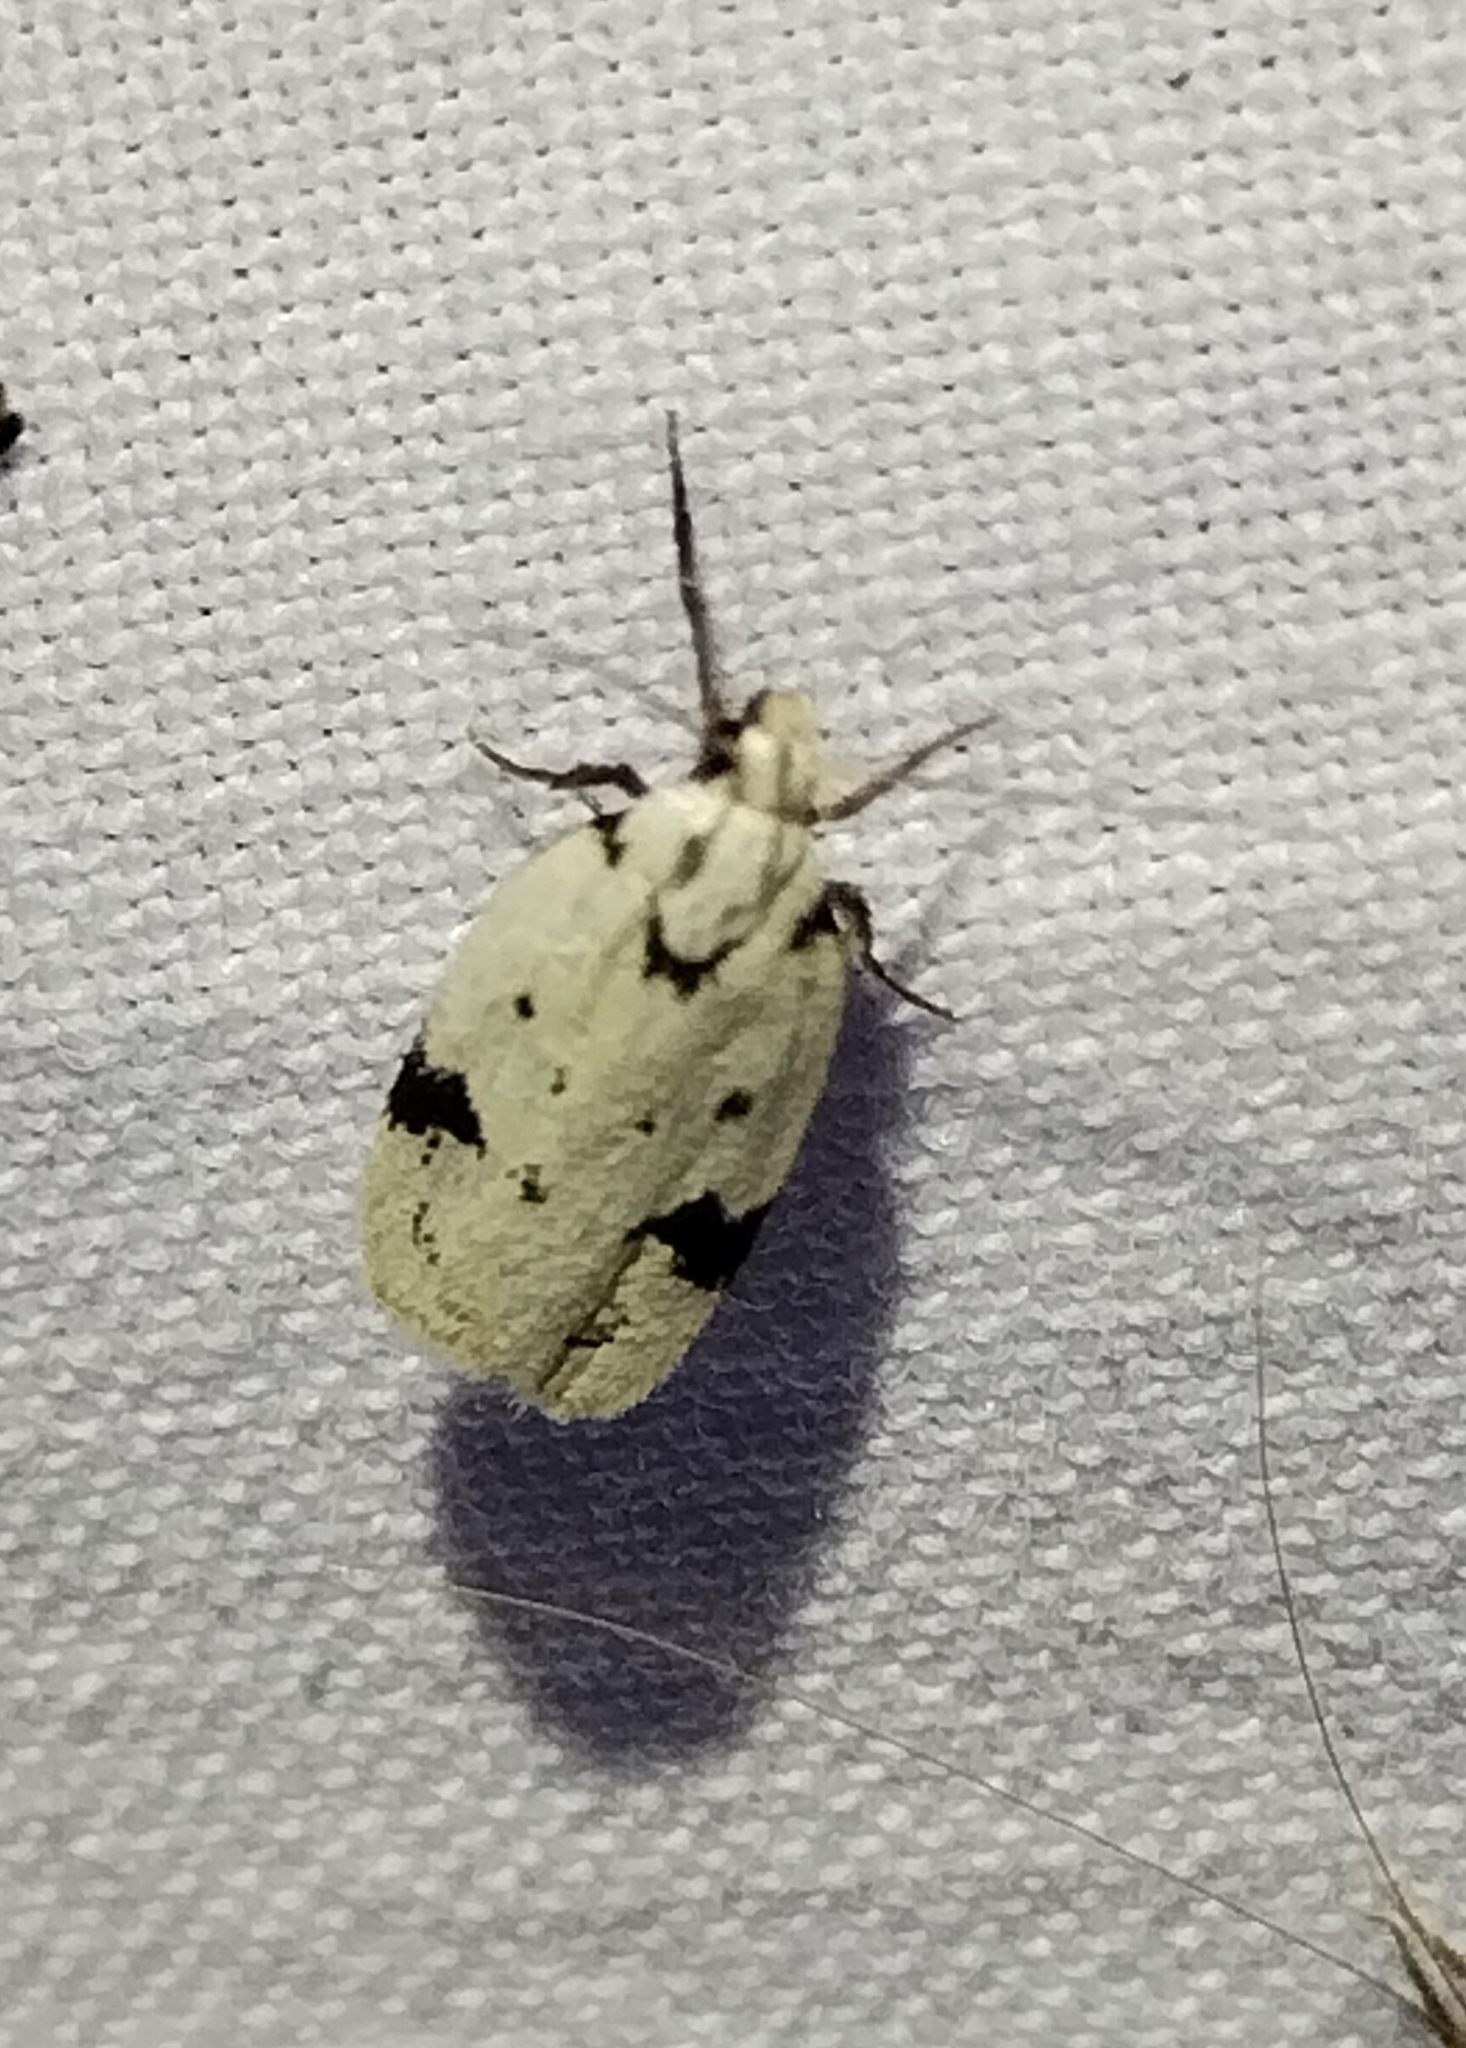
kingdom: Animalia
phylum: Arthropoda
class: Insecta
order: Lepidoptera
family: Oecophoridae
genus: Inga
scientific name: Inga sparsiciliella
